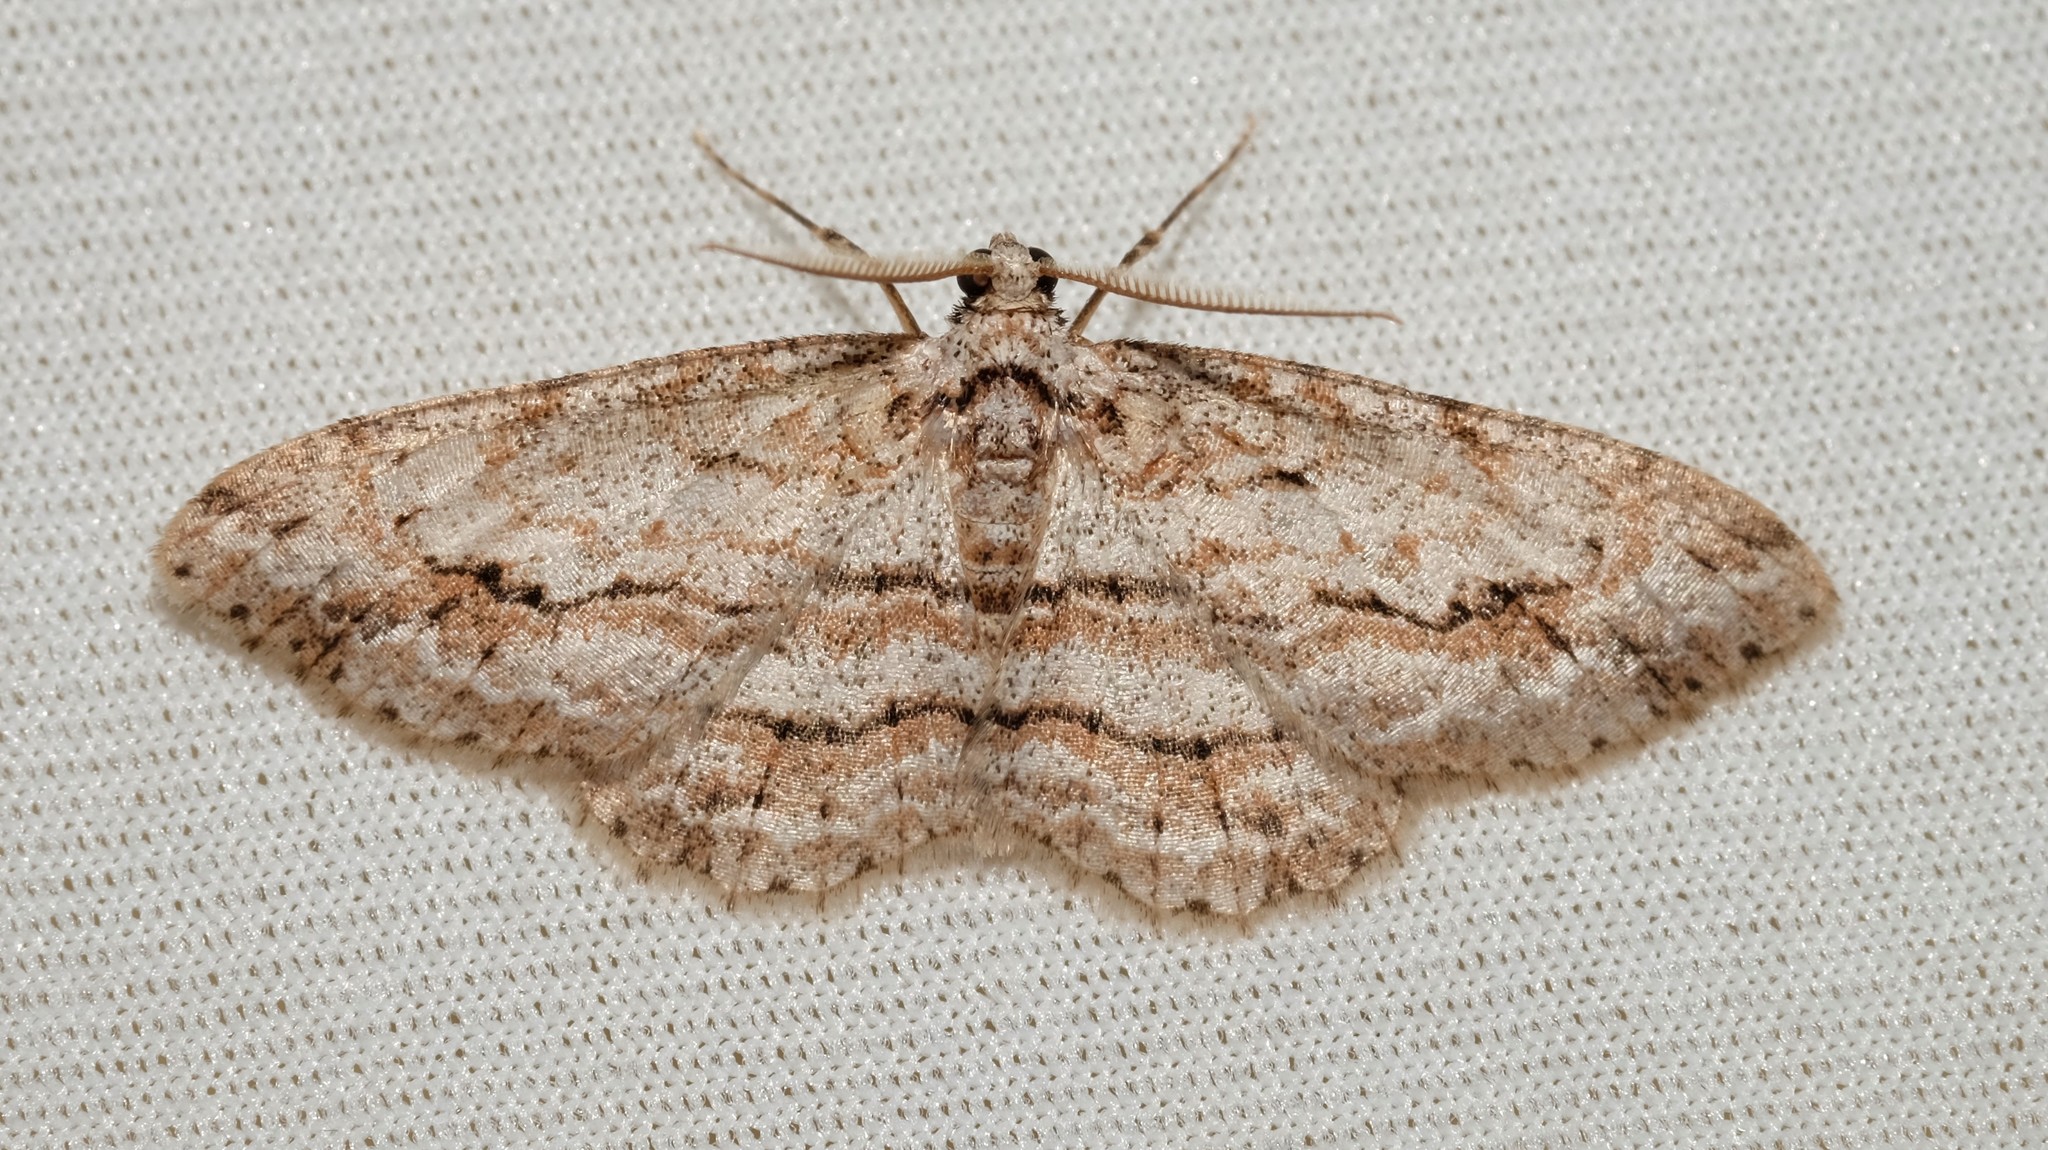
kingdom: Animalia
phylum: Arthropoda
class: Insecta
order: Lepidoptera
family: Geometridae
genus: Didymoctenia
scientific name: Didymoctenia exsuperata
